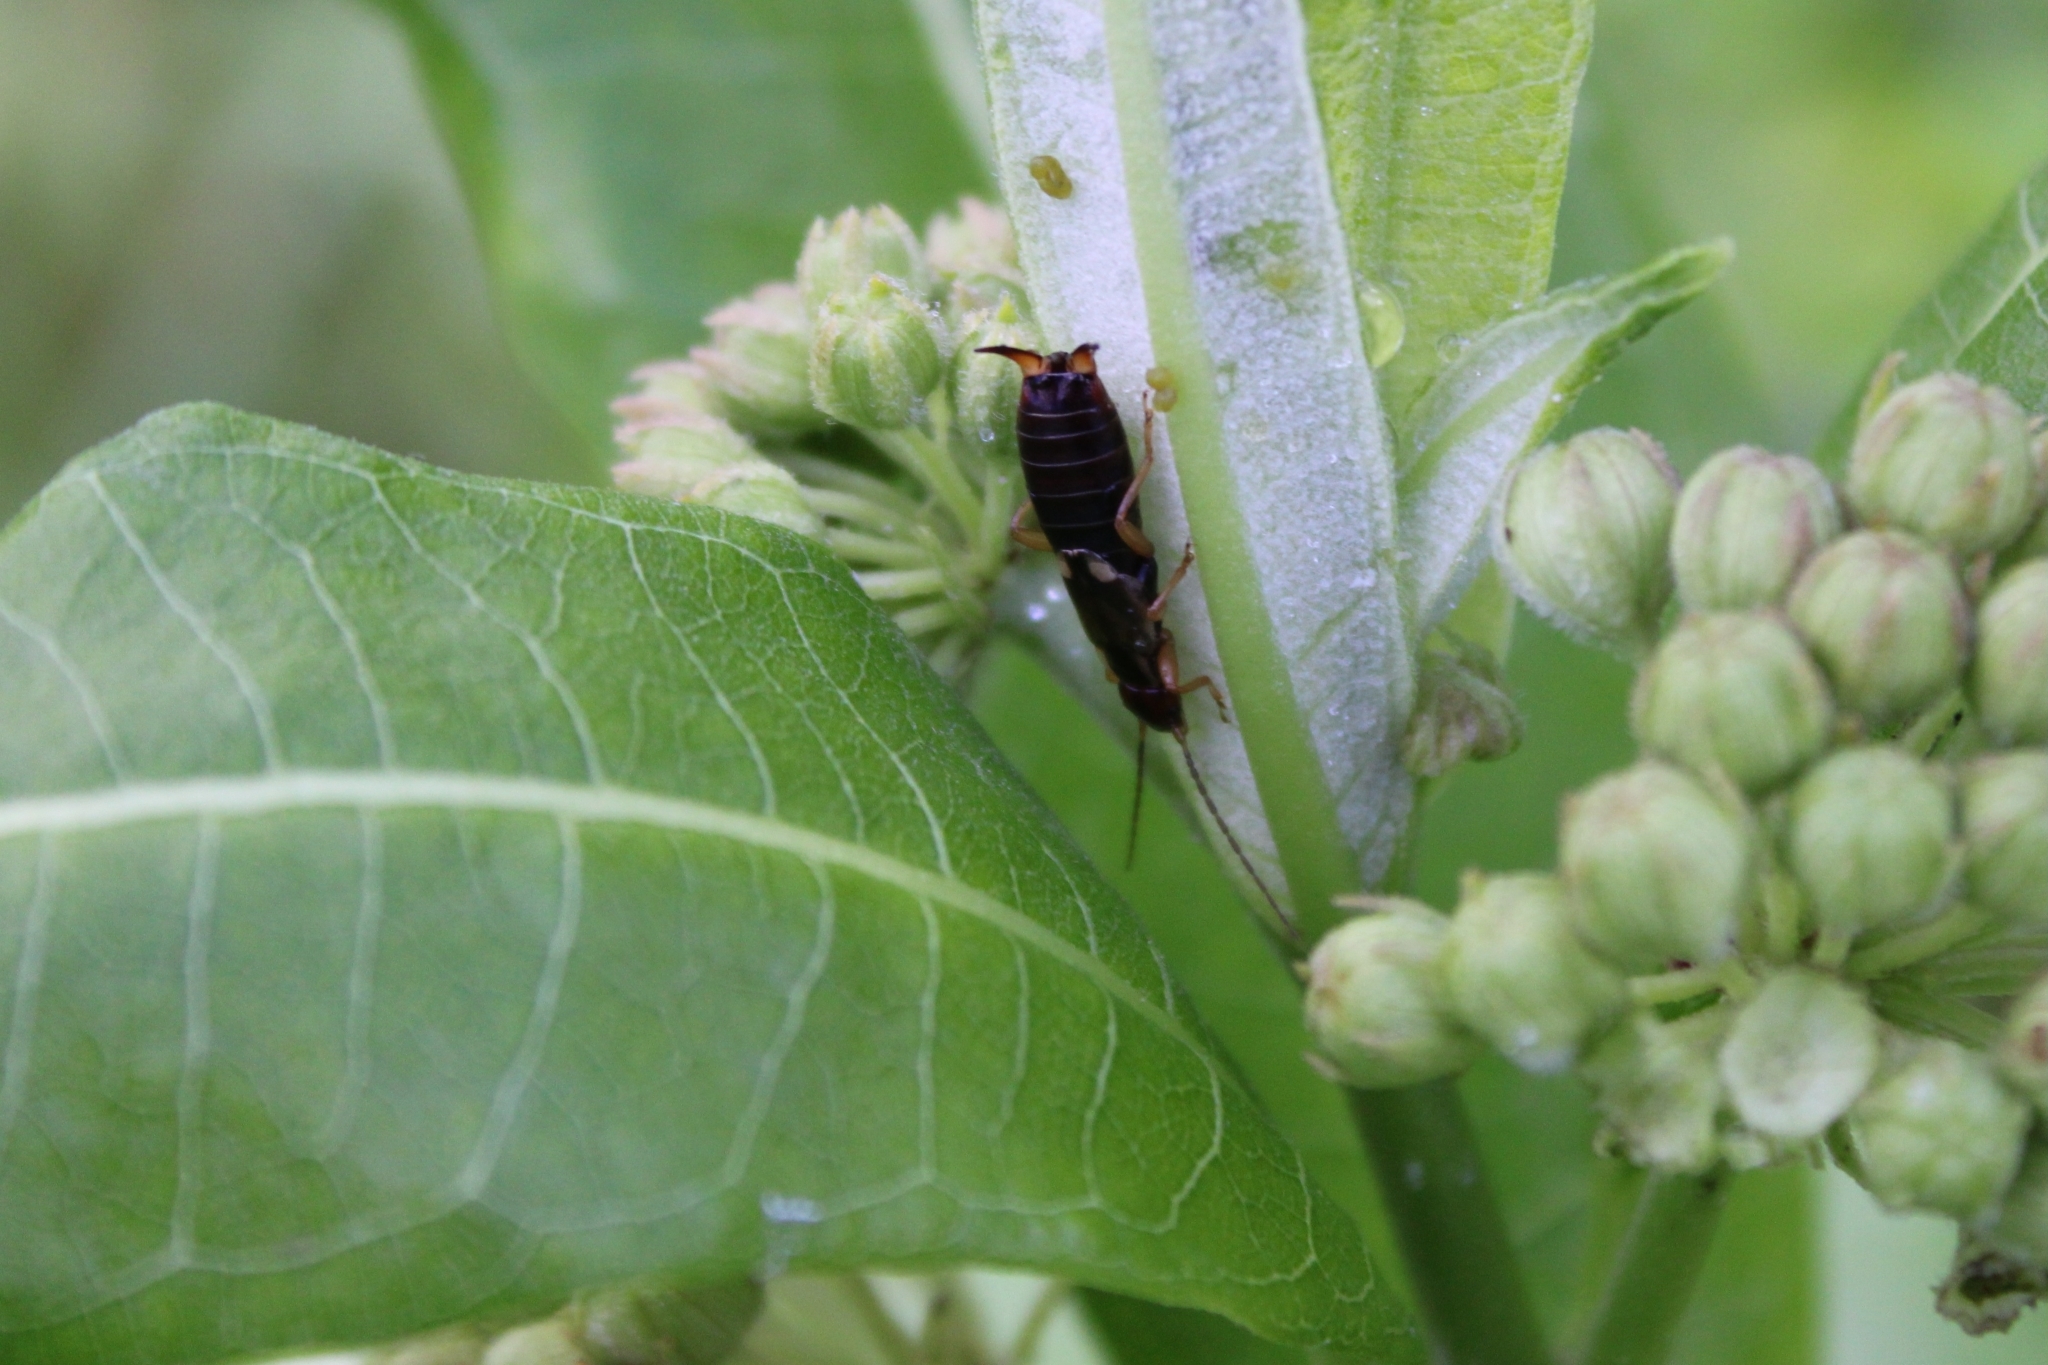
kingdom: Animalia
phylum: Arthropoda
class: Insecta
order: Dermaptera
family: Forficulidae
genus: Forficula
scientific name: Forficula
